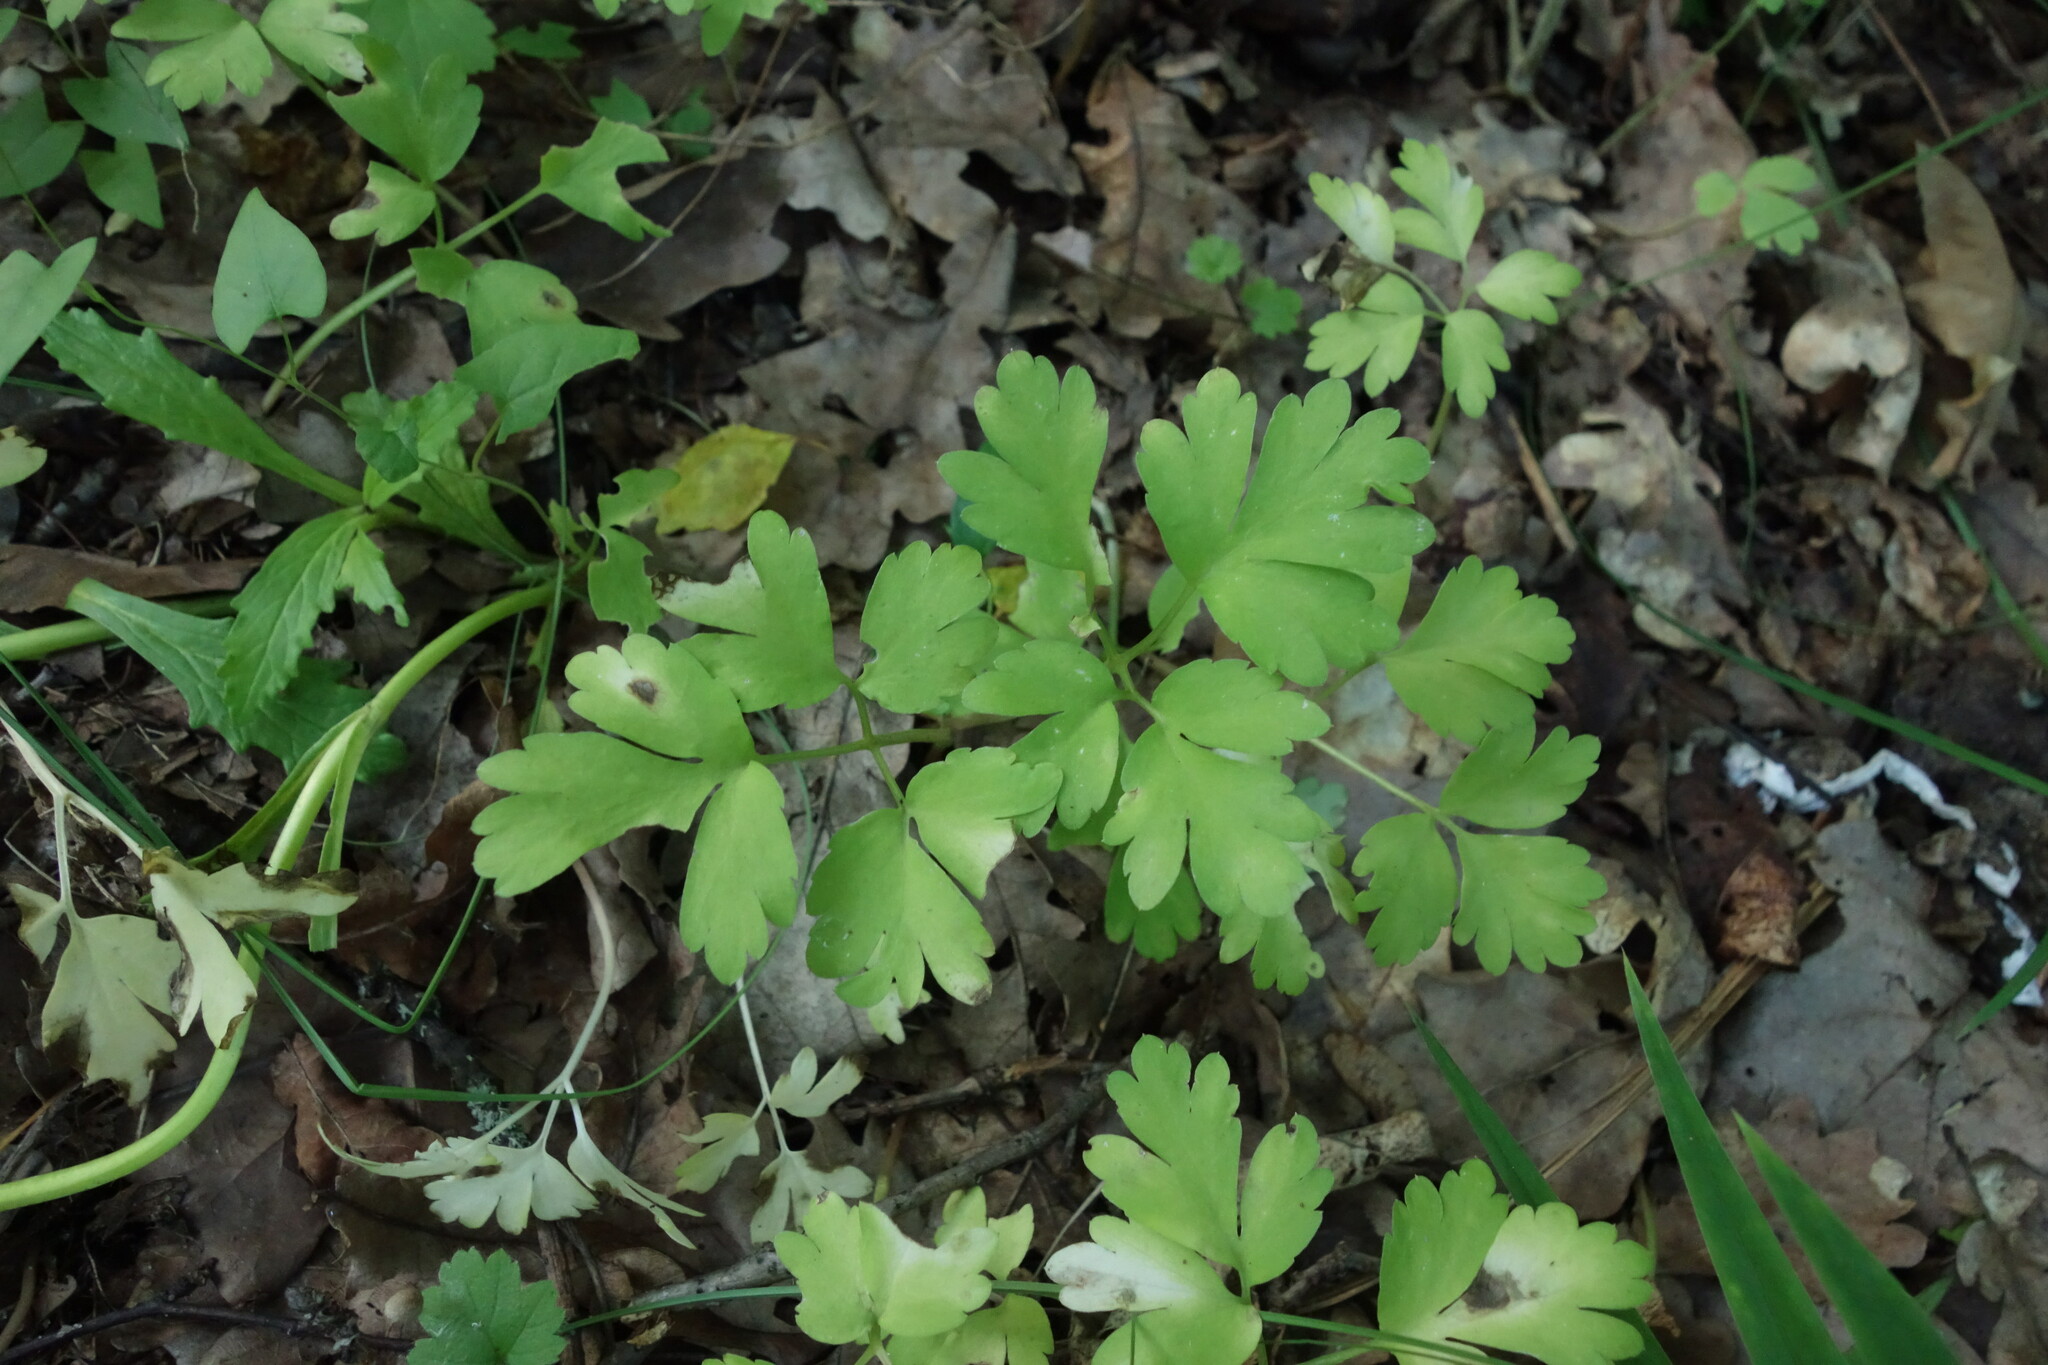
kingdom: Plantae
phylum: Tracheophyta
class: Magnoliopsida
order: Dipsacales
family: Viburnaceae
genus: Adoxa
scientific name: Adoxa moschatellina
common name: Moschatel
